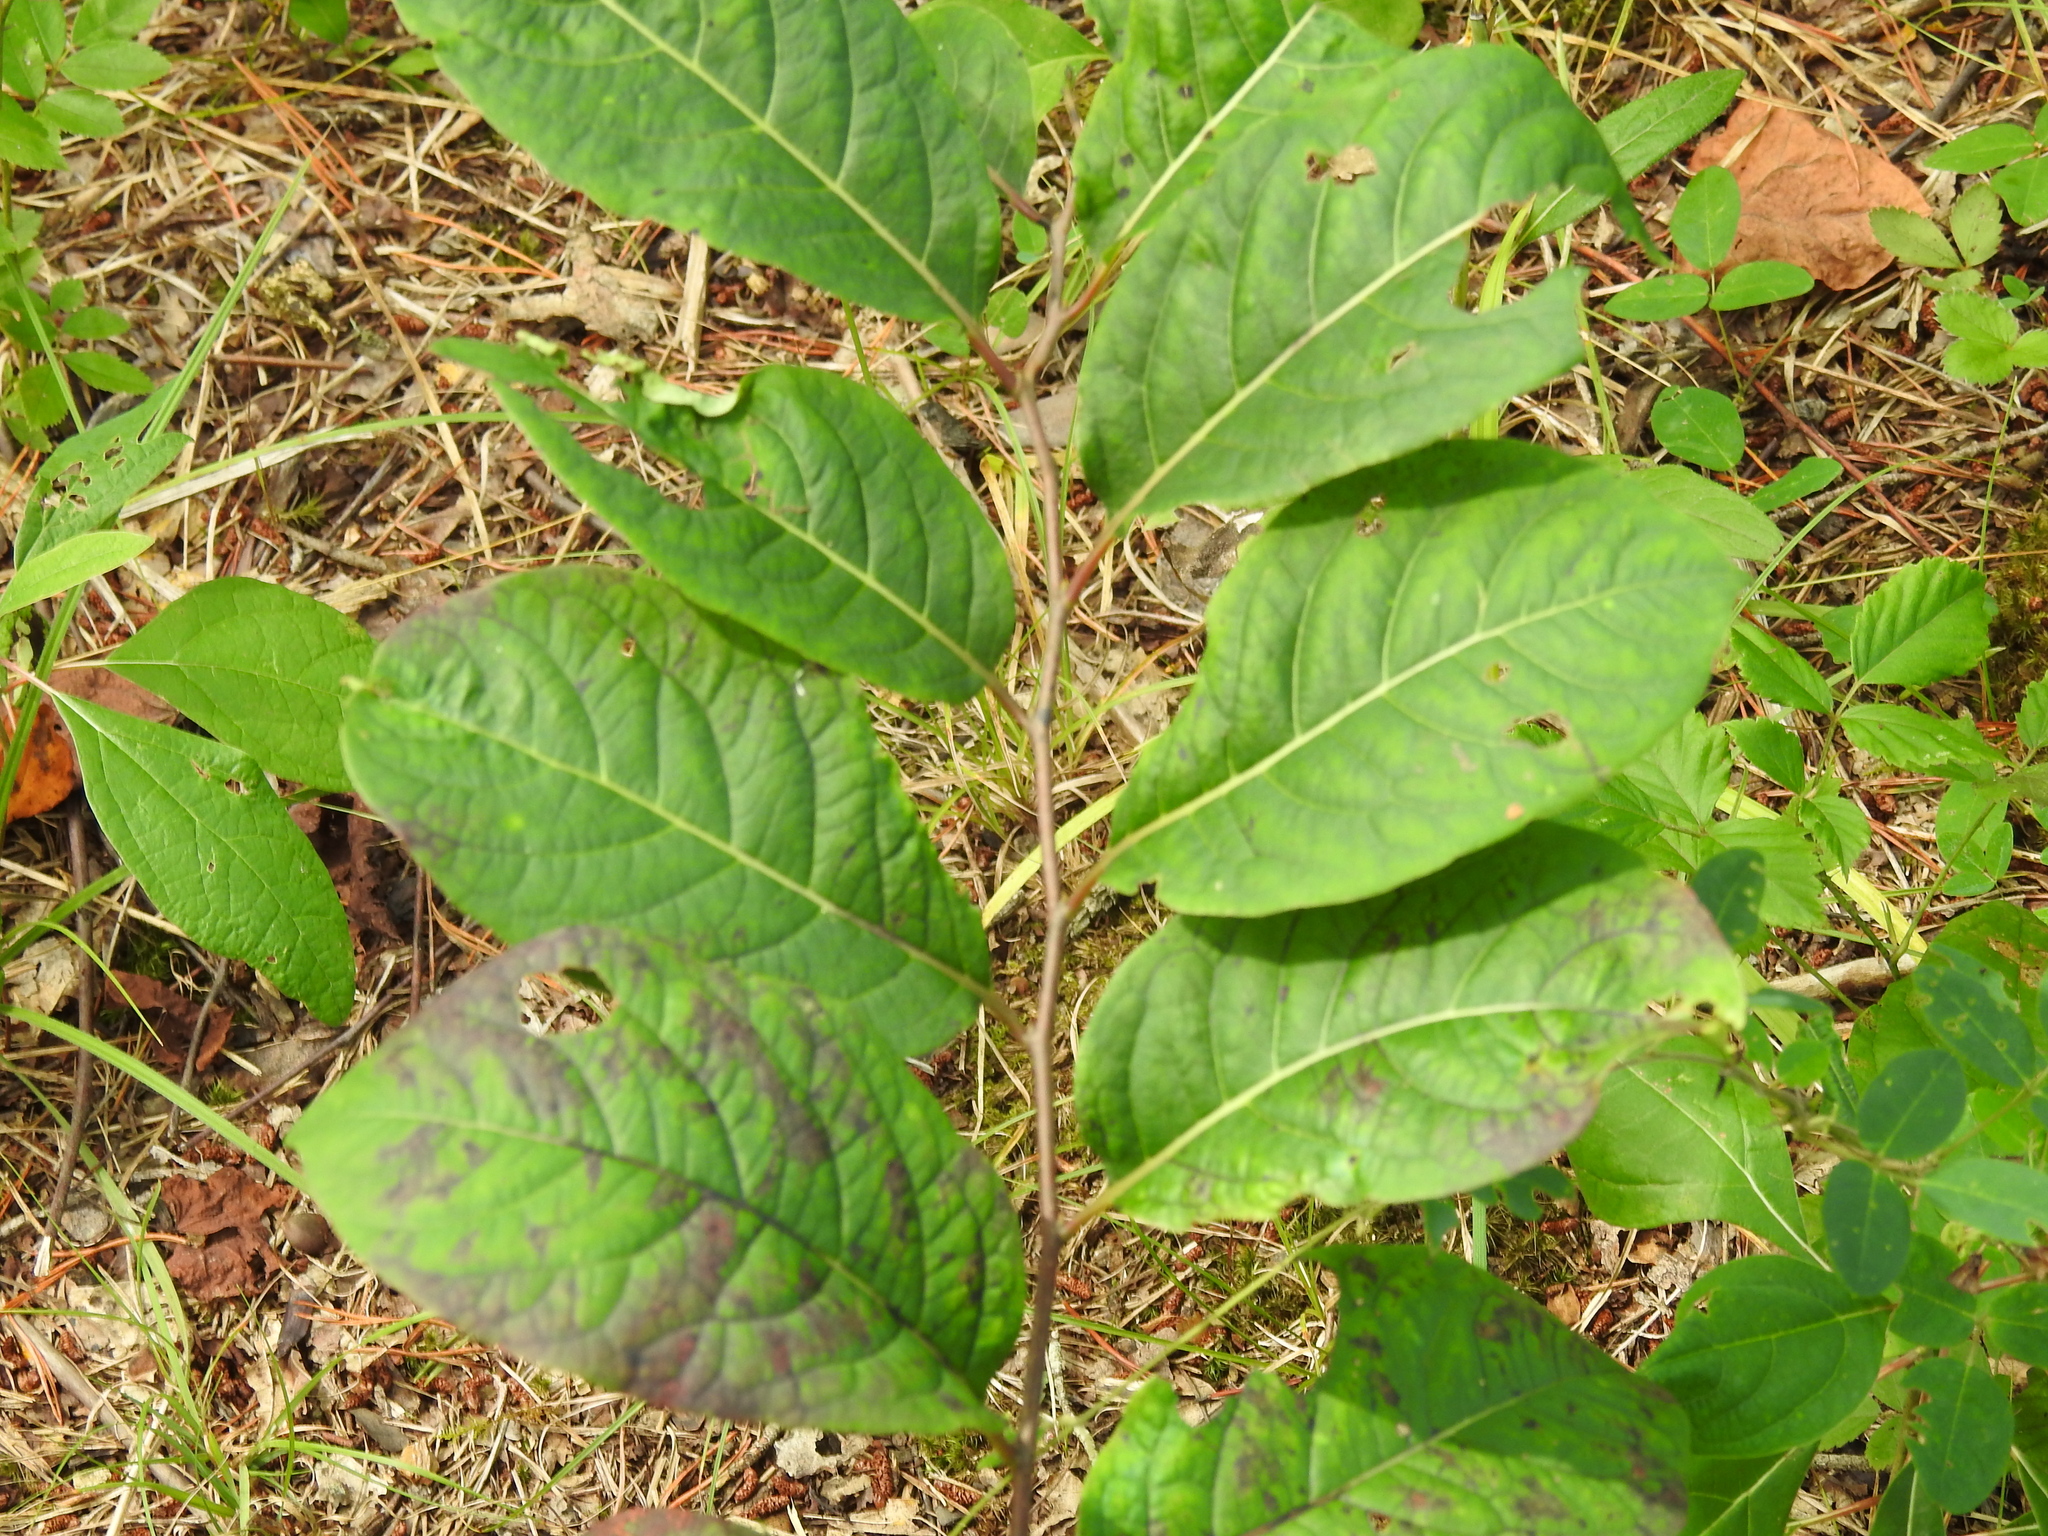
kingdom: Plantae
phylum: Tracheophyta
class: Magnoliopsida
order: Ericales
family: Ebenaceae
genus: Diospyros
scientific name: Diospyros virginiana
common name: Persimmon
